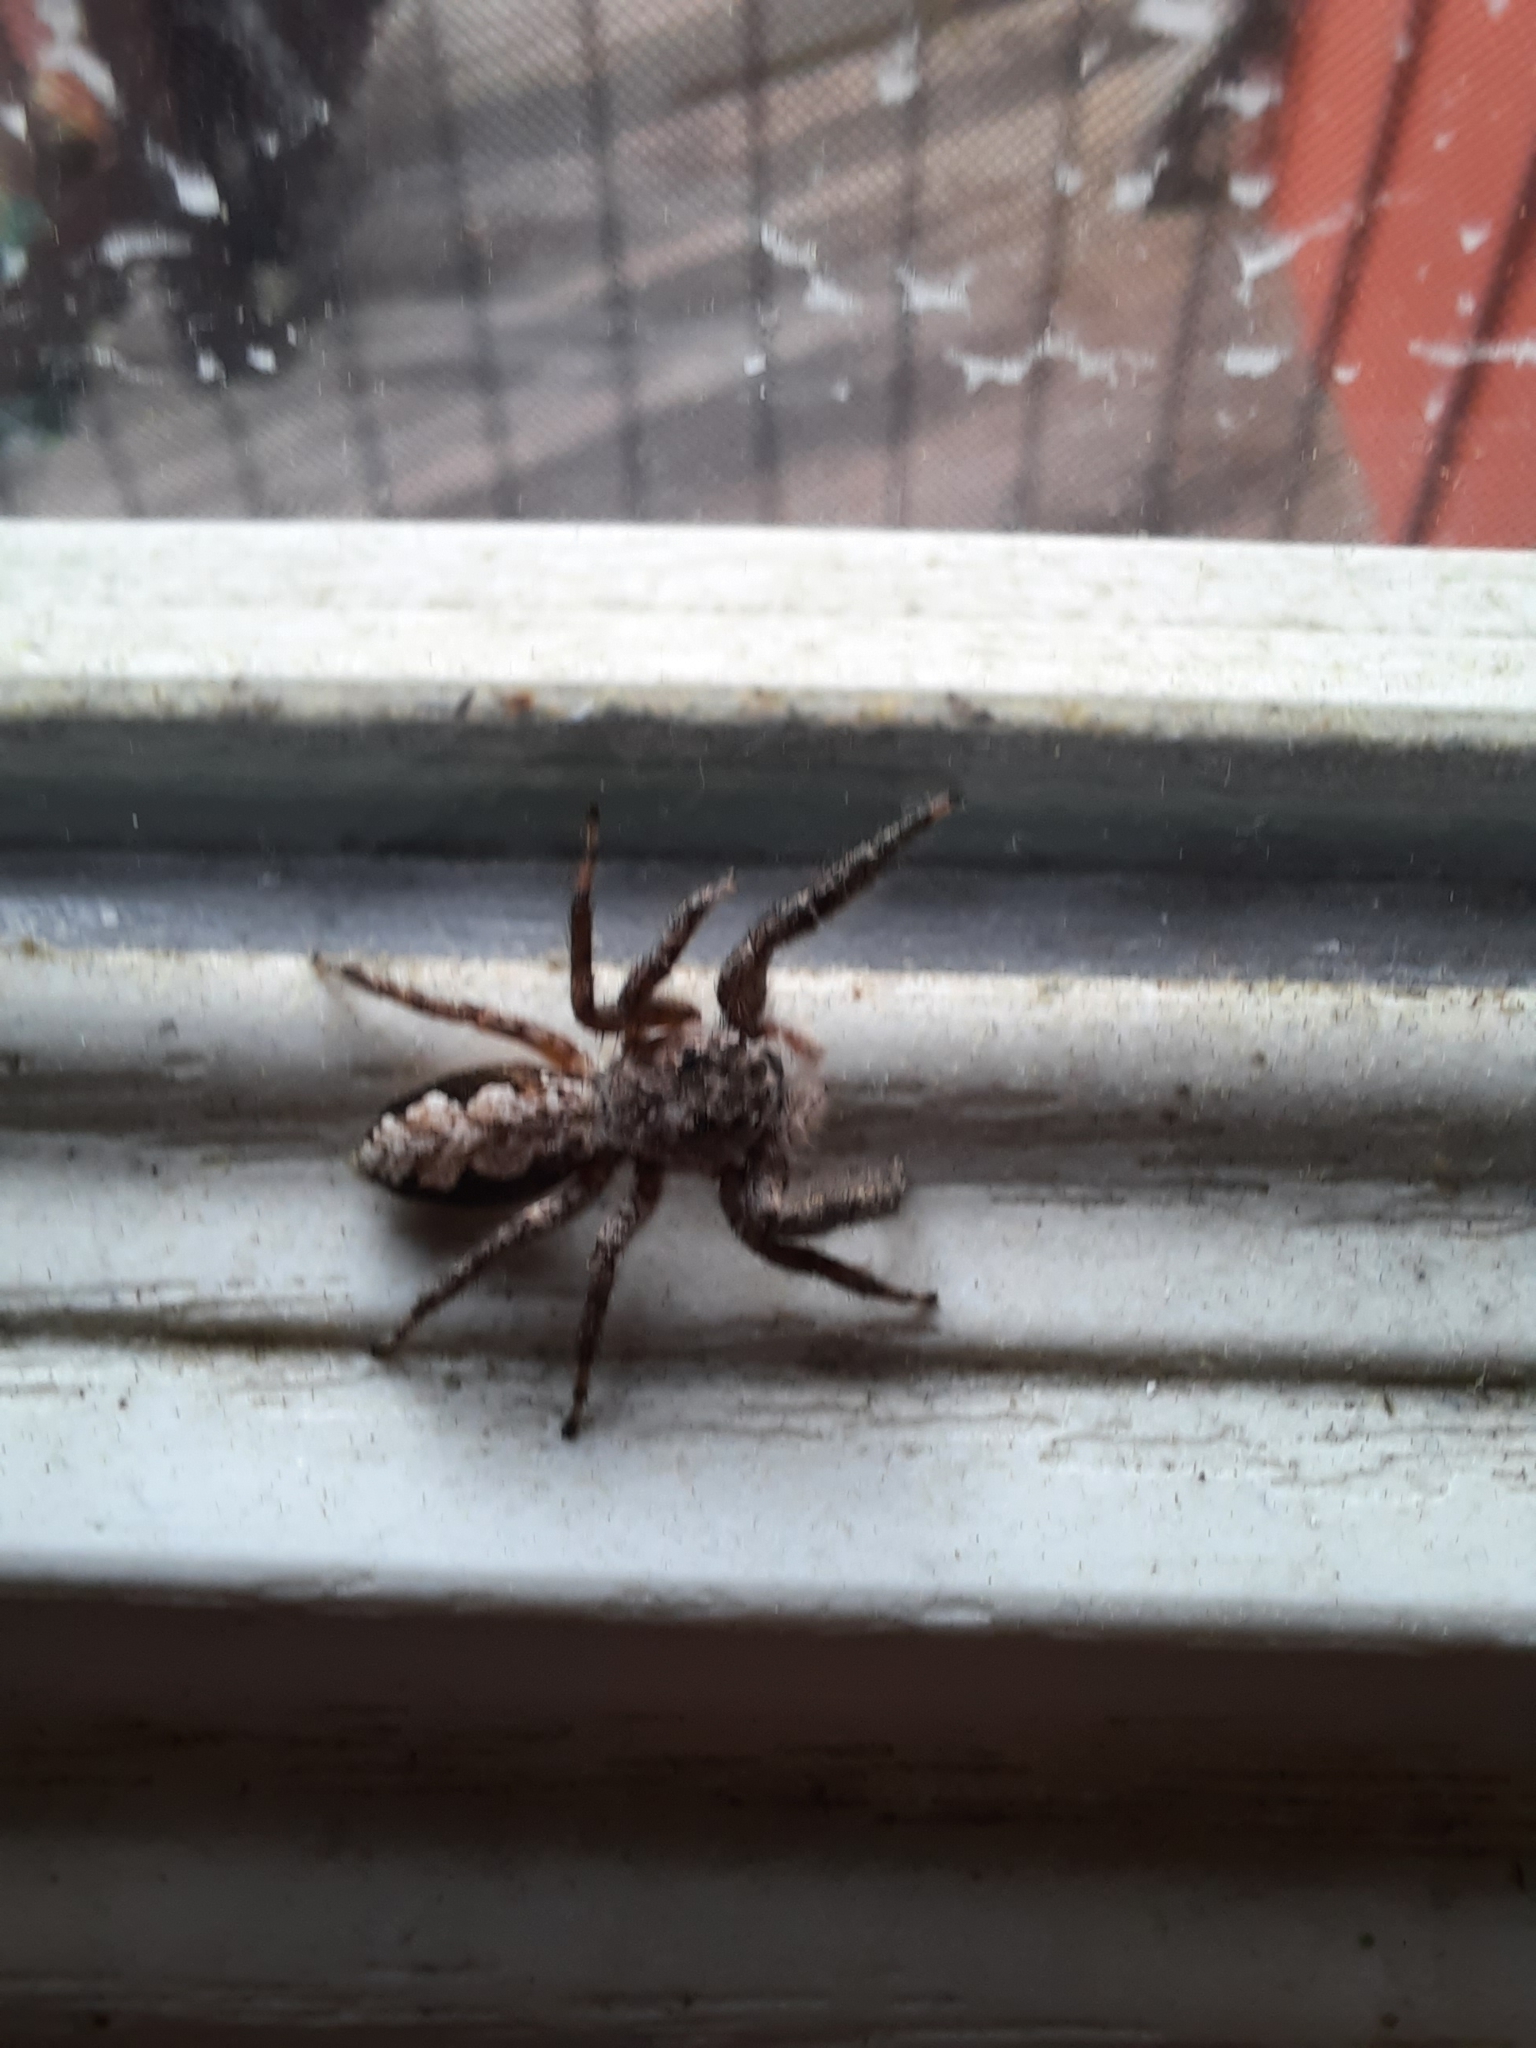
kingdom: Animalia
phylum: Arthropoda
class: Arachnida
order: Araneae
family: Salticidae
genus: Platycryptus
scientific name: Platycryptus undatus
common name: Tan jumping spider
